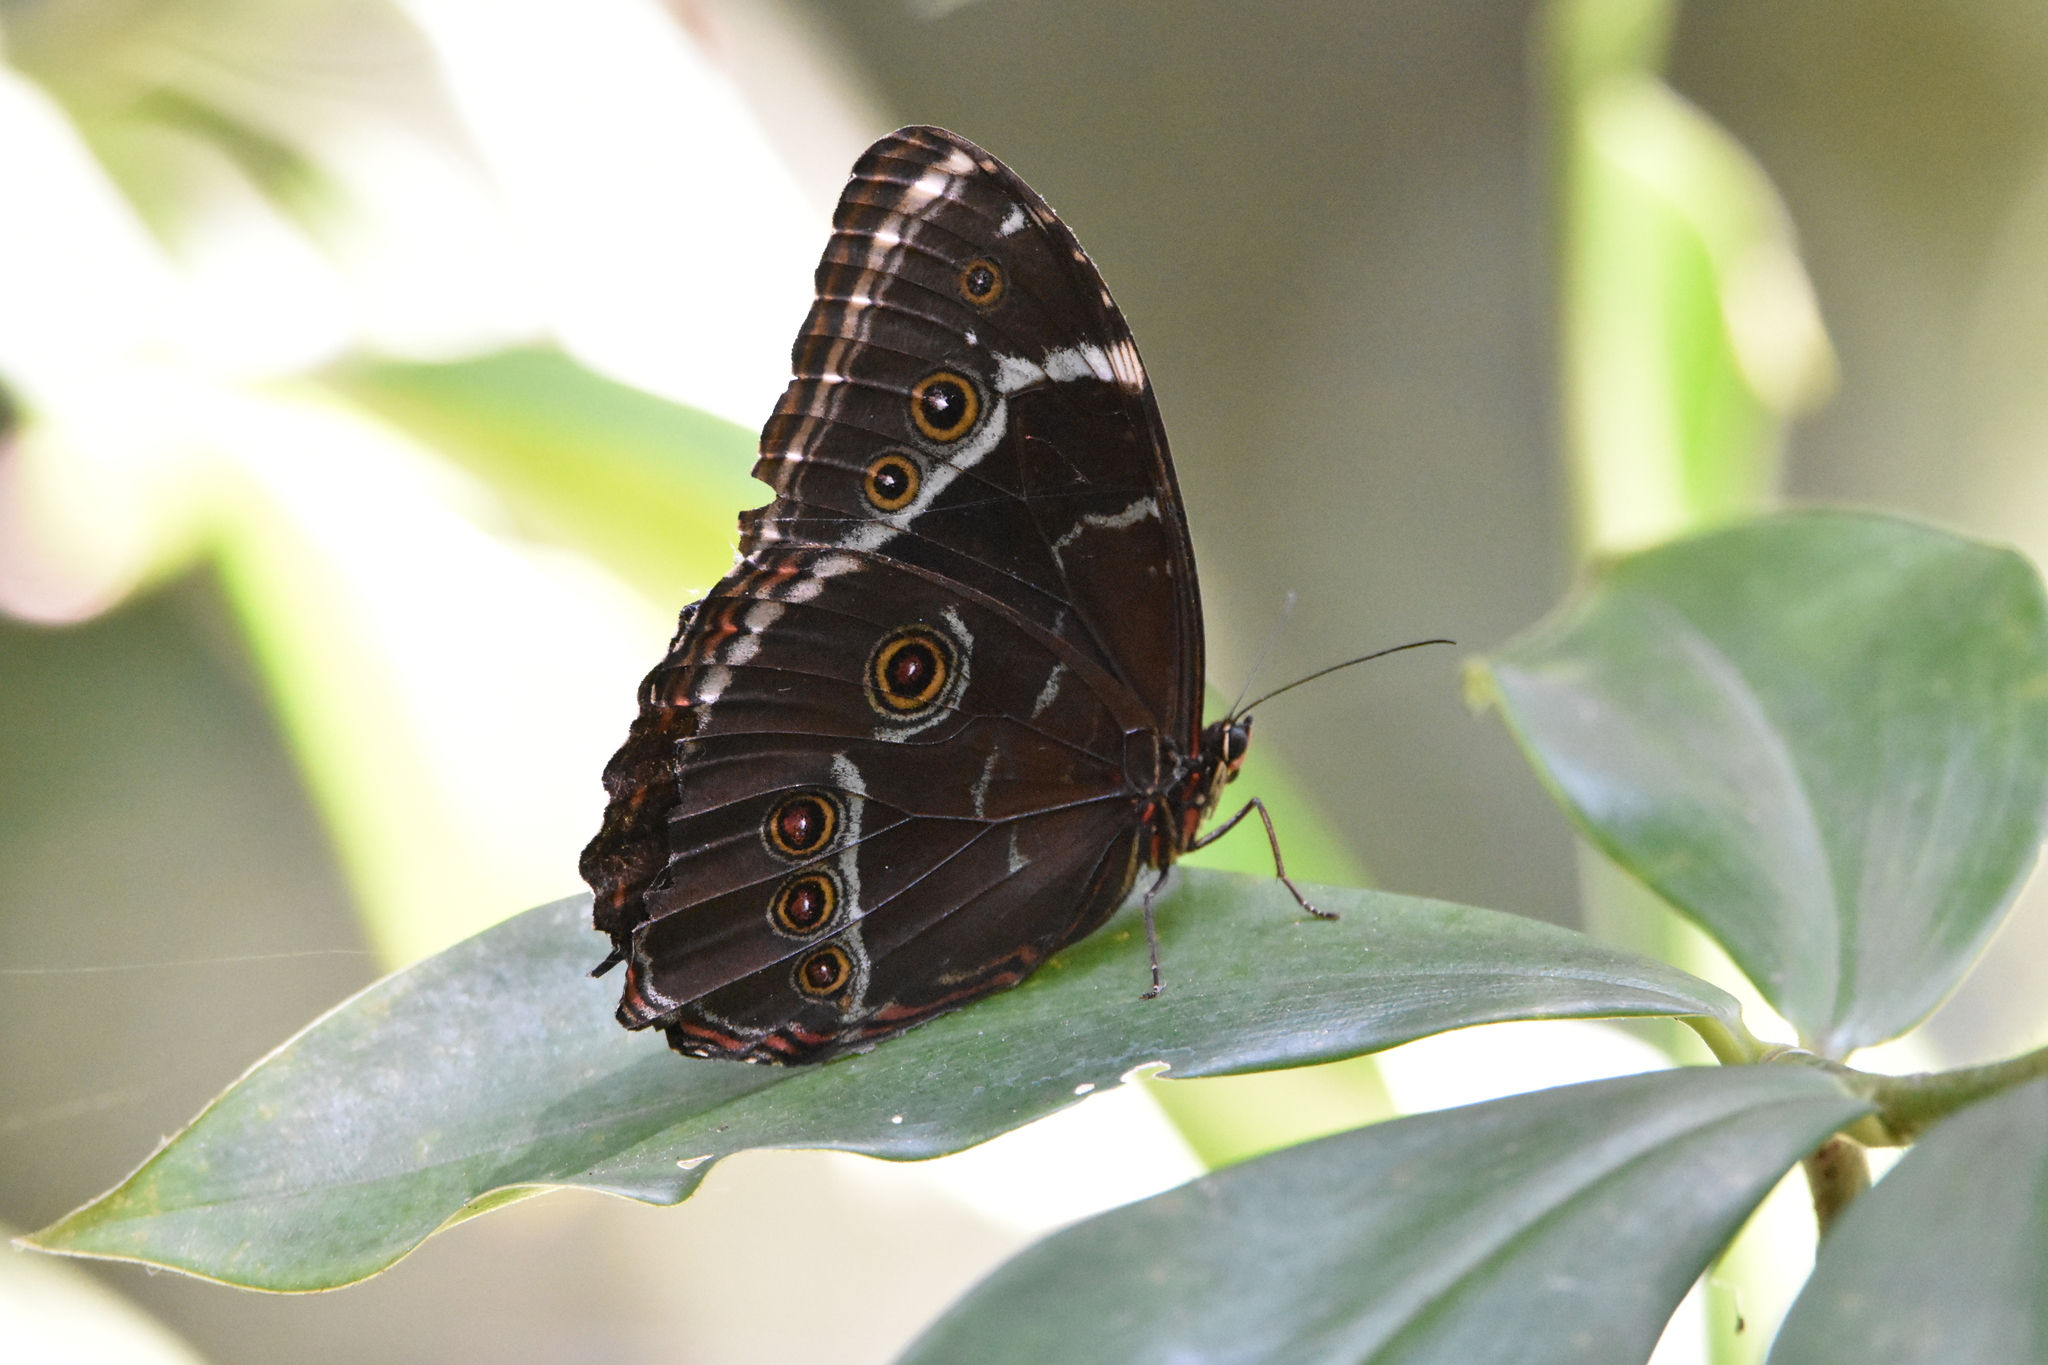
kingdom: Animalia
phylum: Arthropoda
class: Insecta
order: Lepidoptera
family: Nymphalidae
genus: Morpho
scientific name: Morpho helenor
